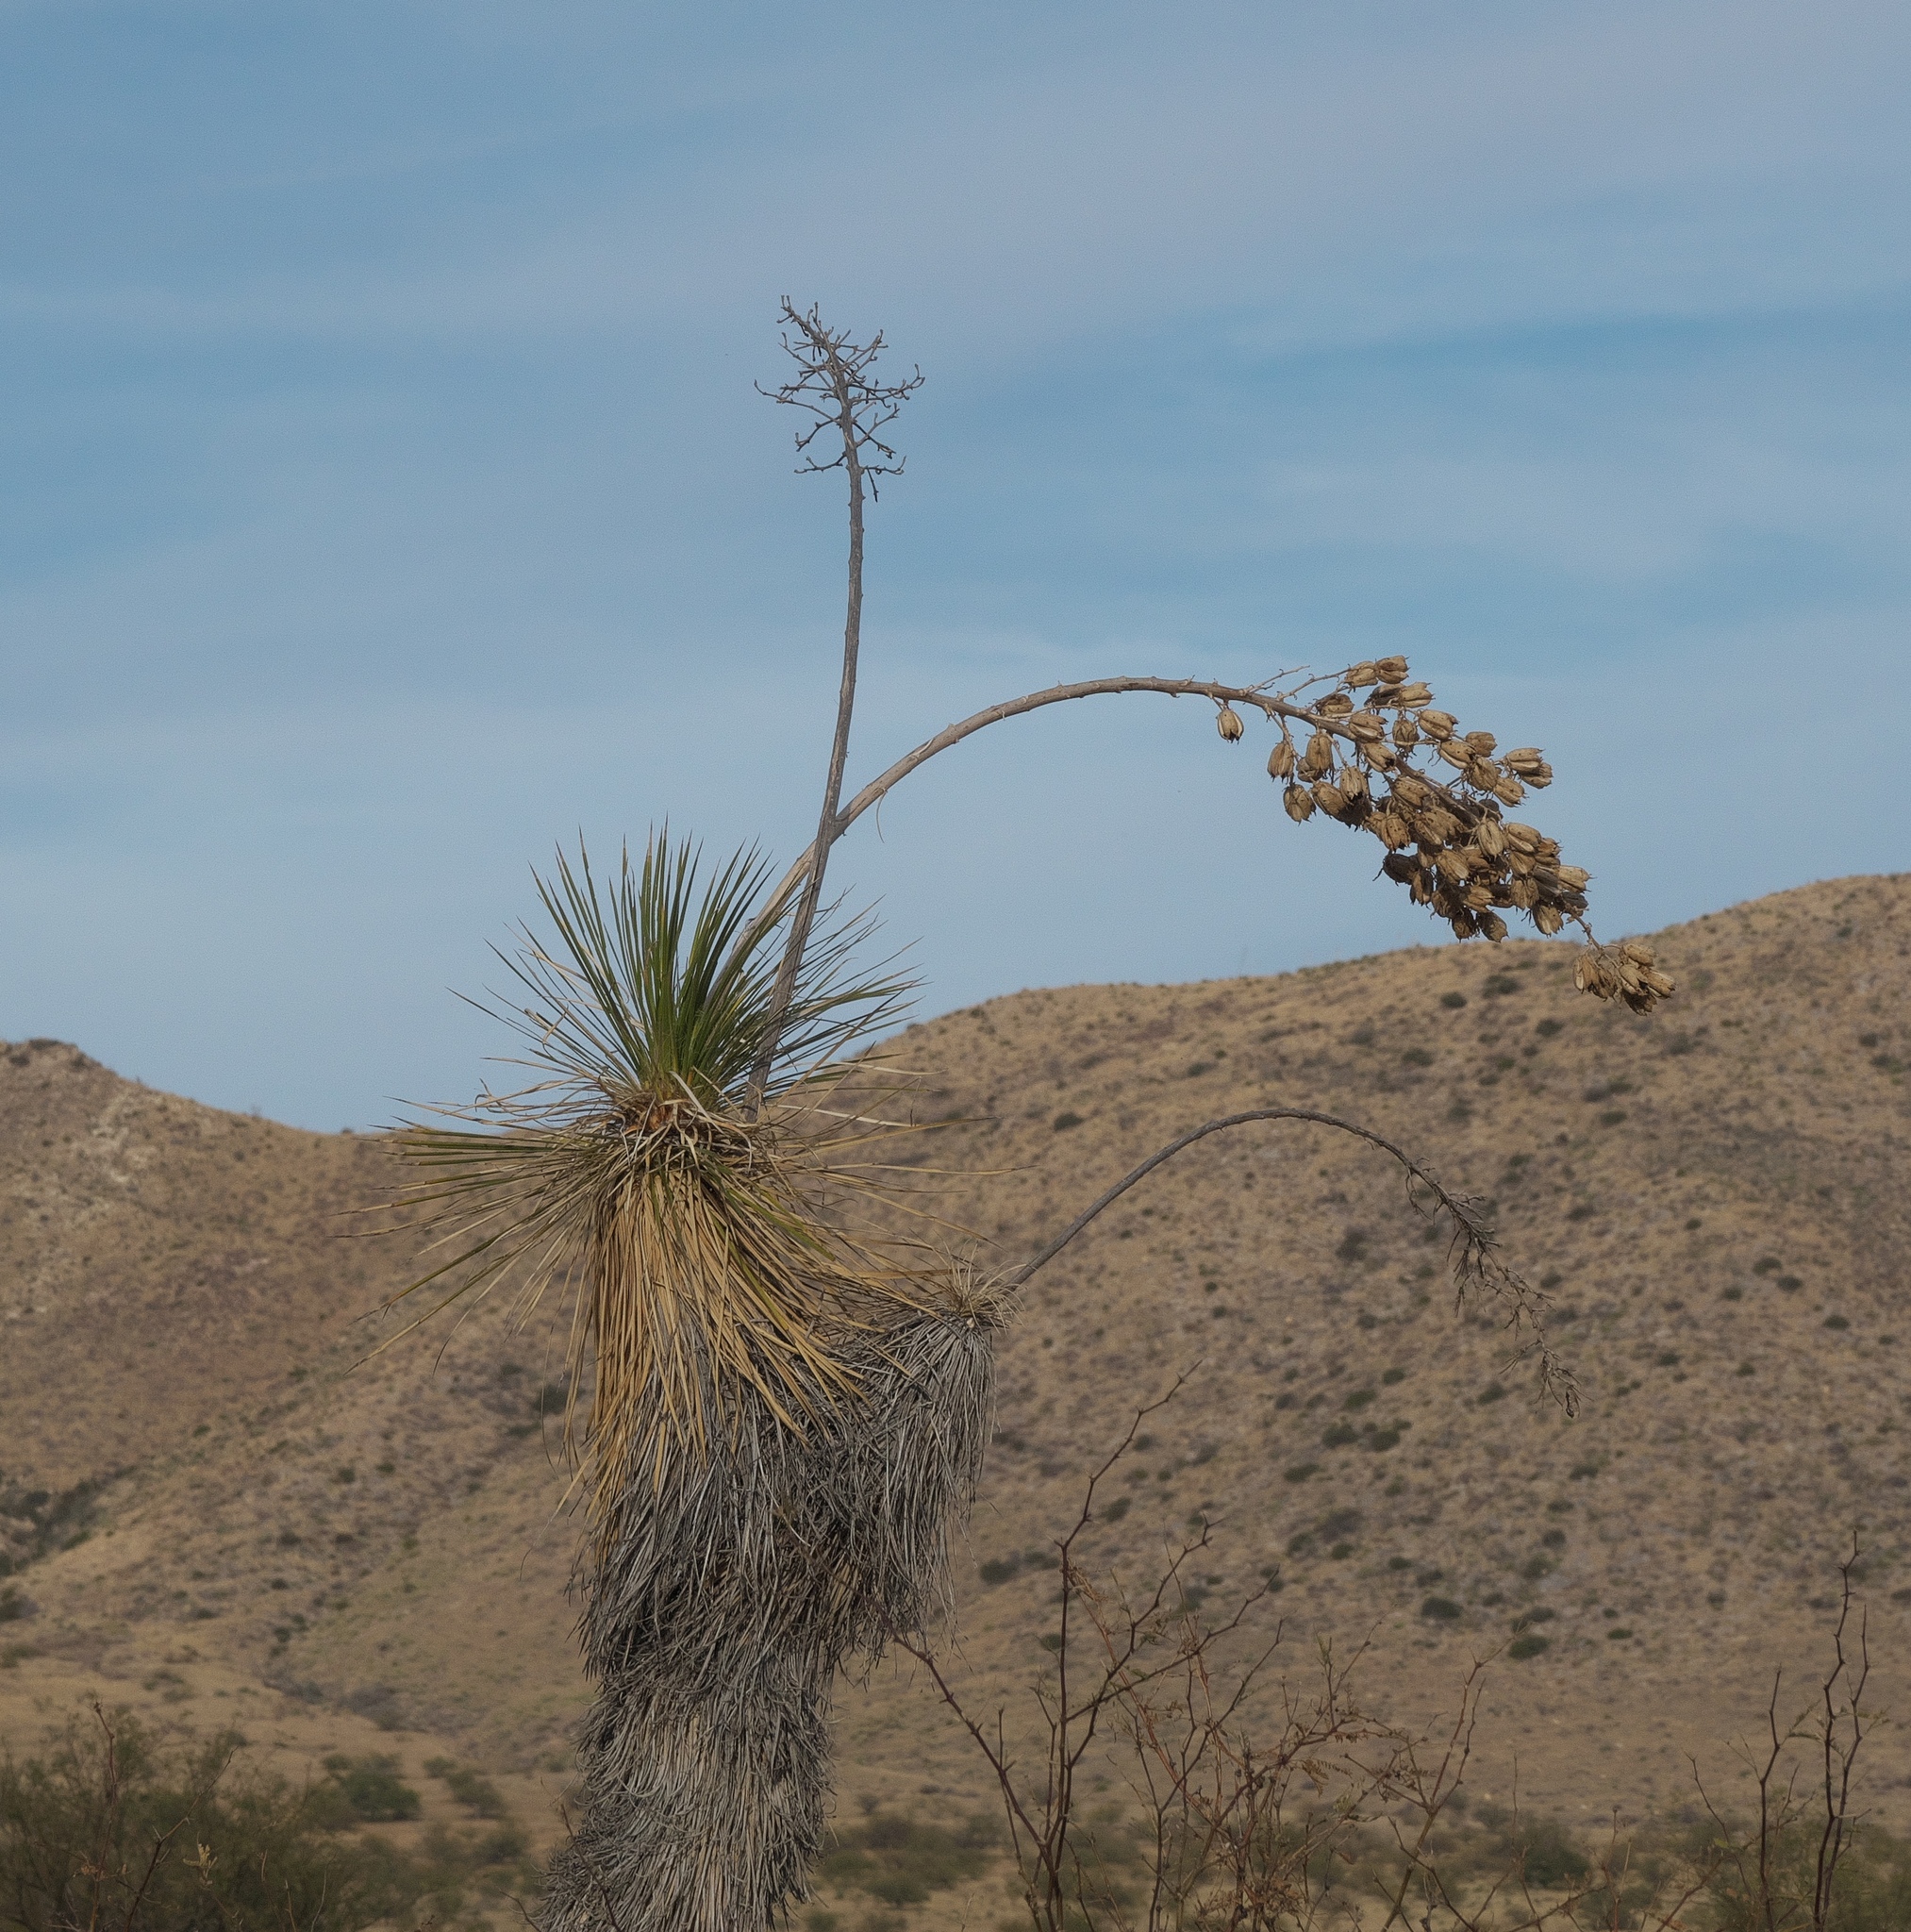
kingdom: Plantae
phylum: Tracheophyta
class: Liliopsida
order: Asparagales
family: Asparagaceae
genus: Yucca
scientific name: Yucca elata
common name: Palmella
